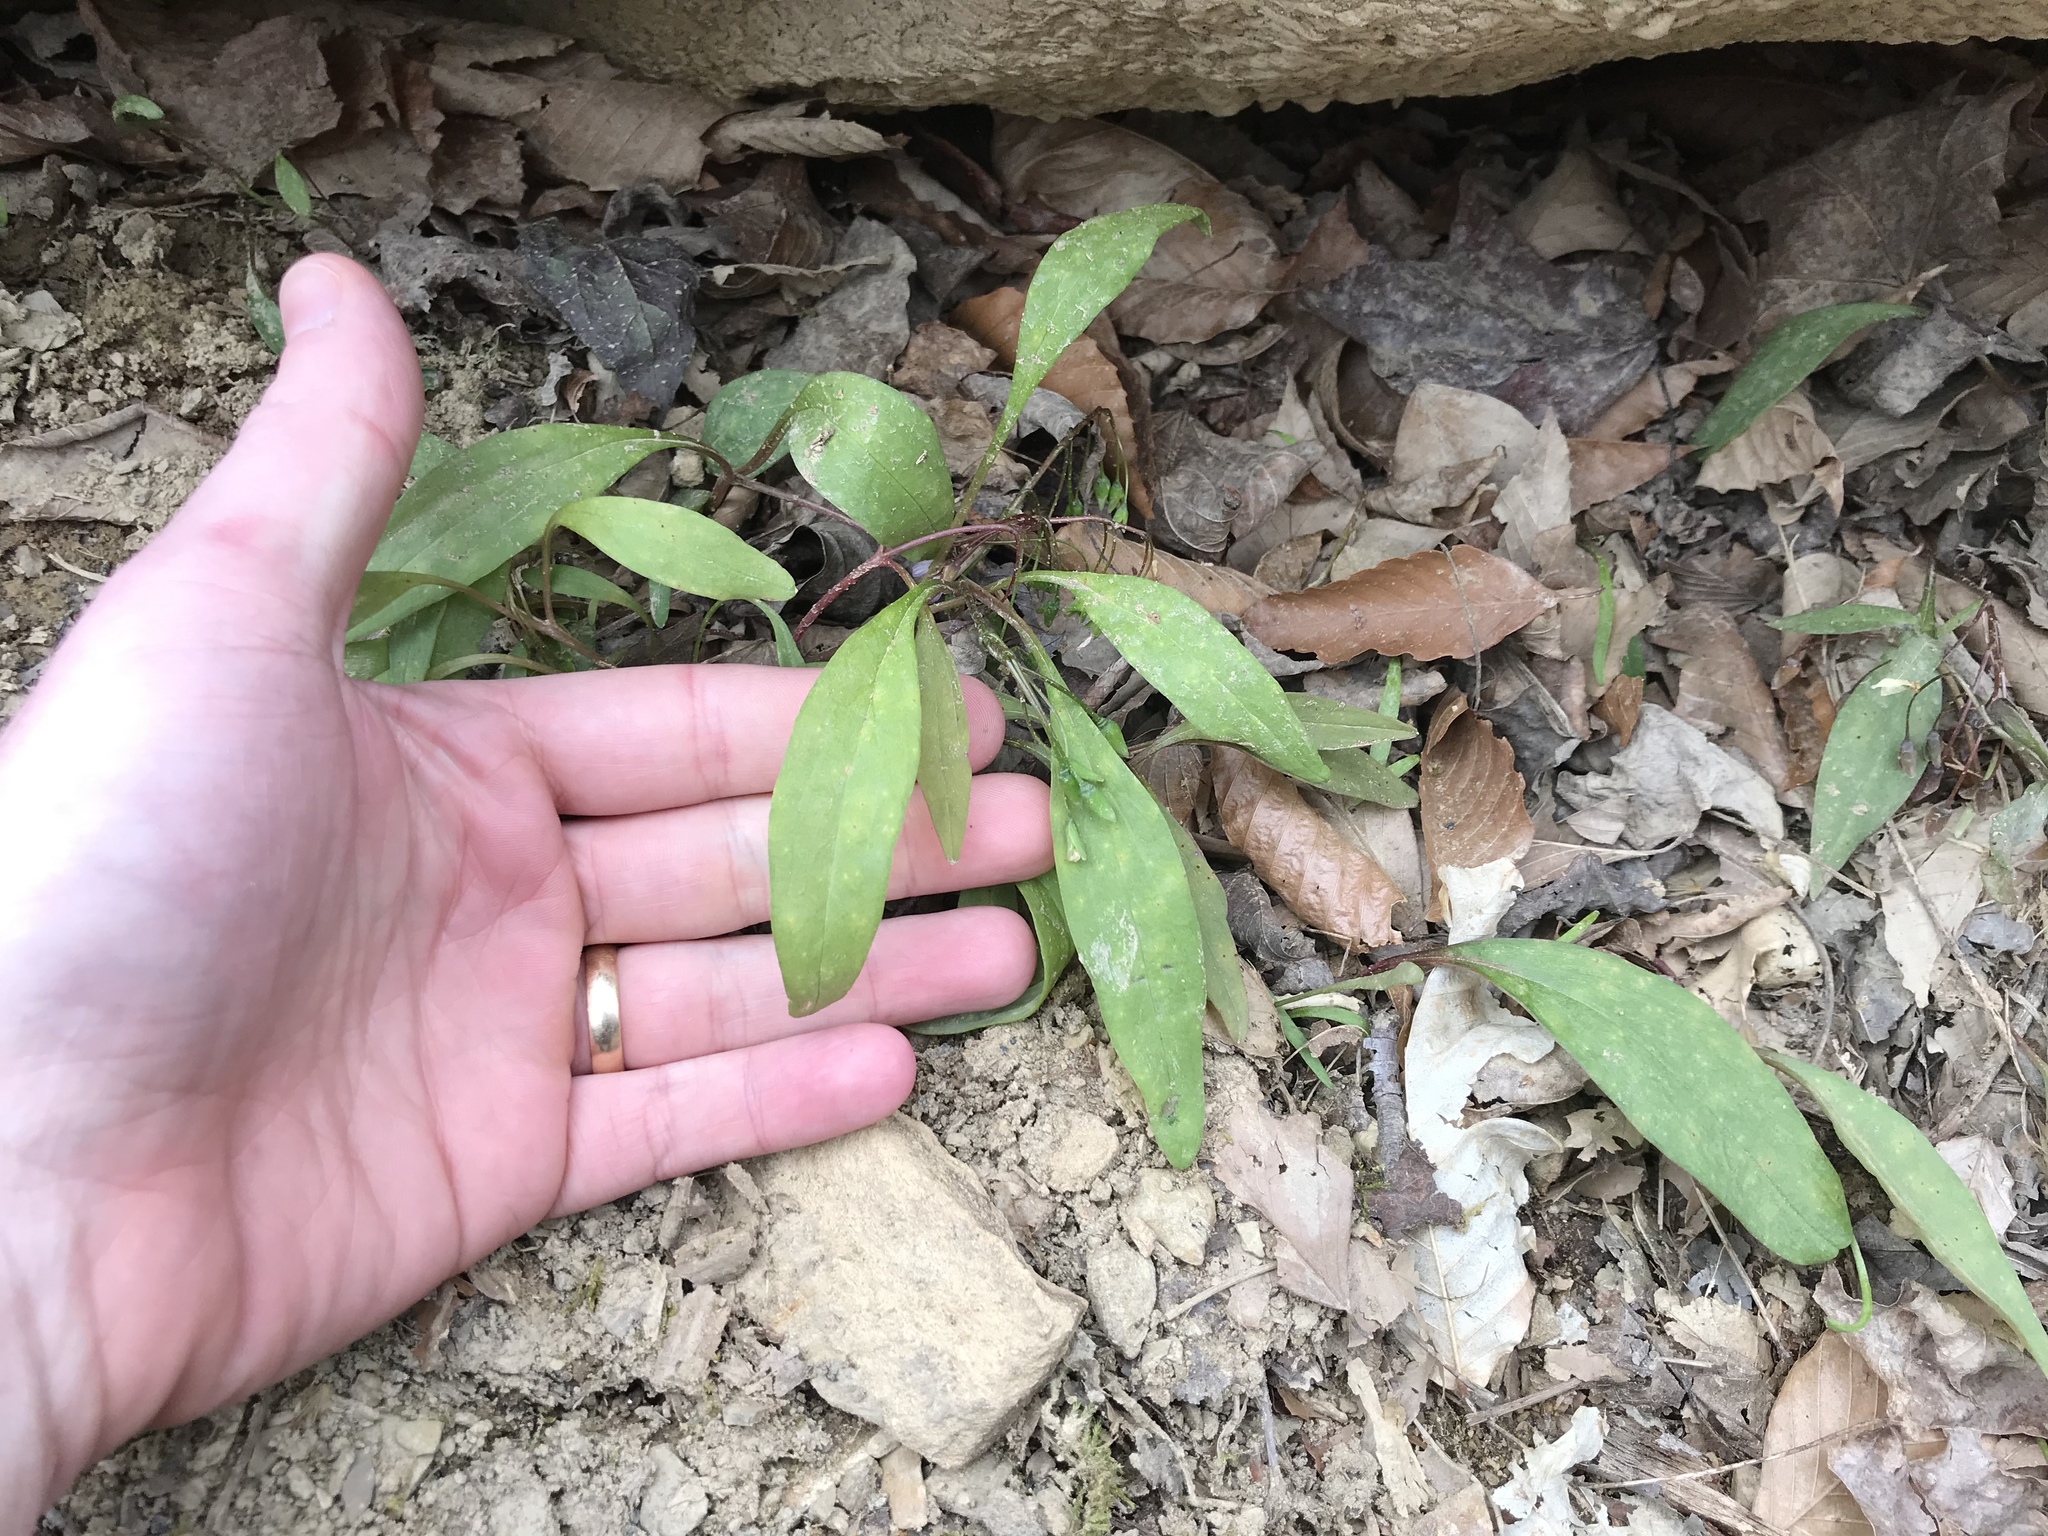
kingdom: Plantae
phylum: Tracheophyta
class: Magnoliopsida
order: Caryophyllales
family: Montiaceae
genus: Claytonia
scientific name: Claytonia caroliniana
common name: Carolina spring beauty
